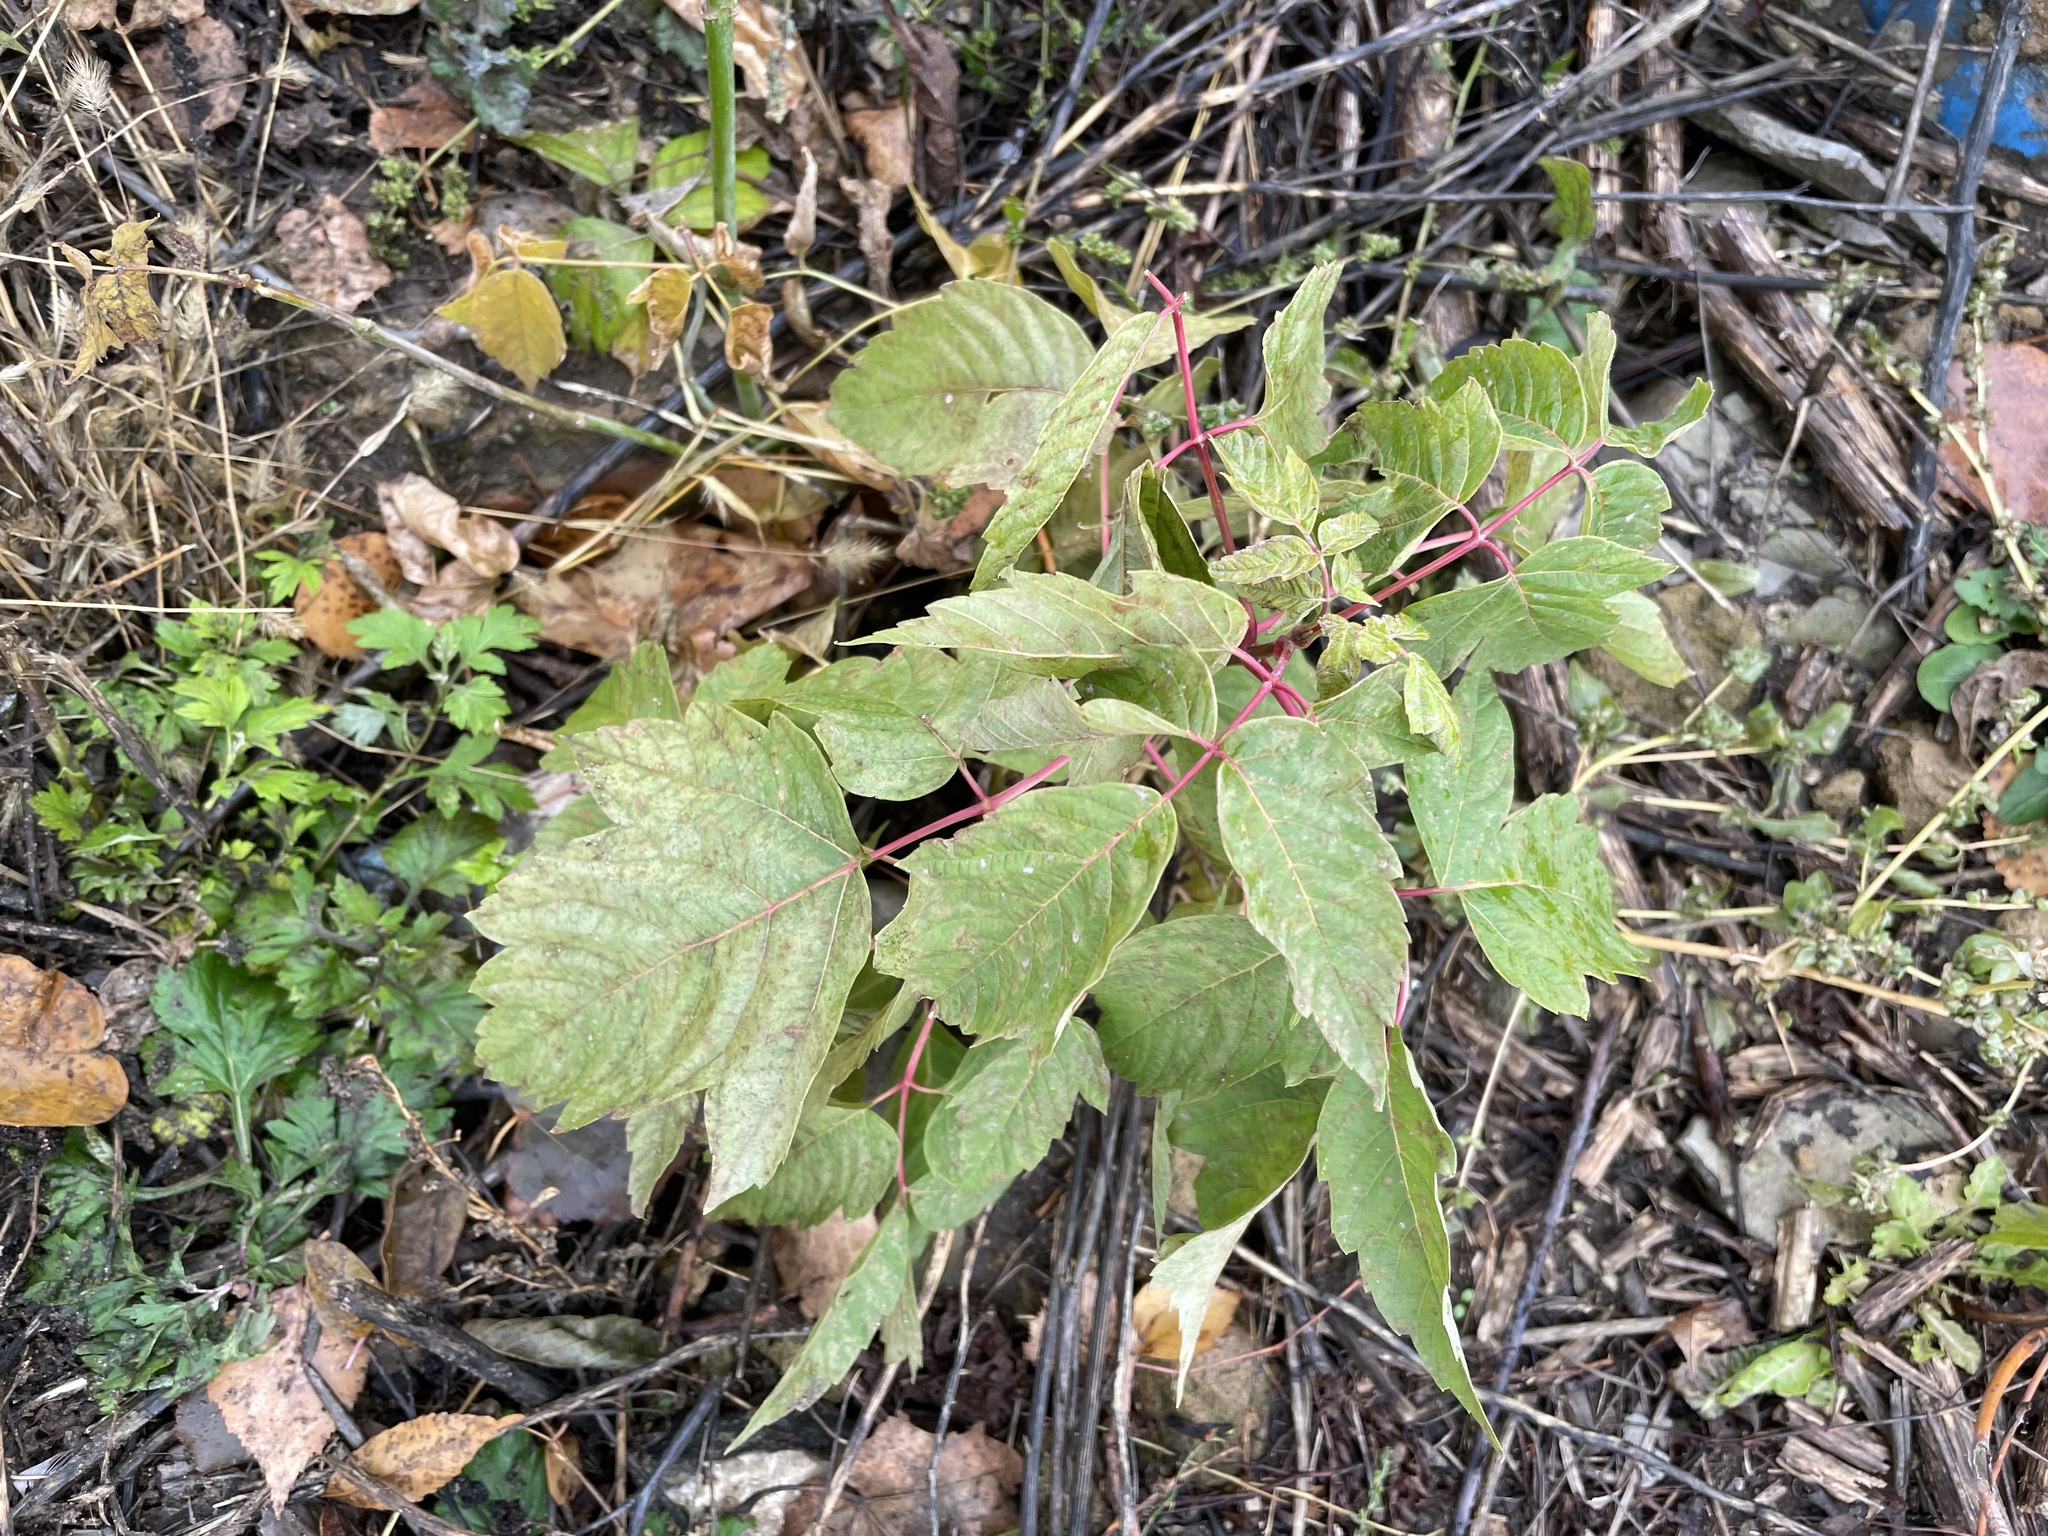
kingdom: Plantae
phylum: Tracheophyta
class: Magnoliopsida
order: Sapindales
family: Sapindaceae
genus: Acer
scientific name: Acer negundo
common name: Ashleaf maple
